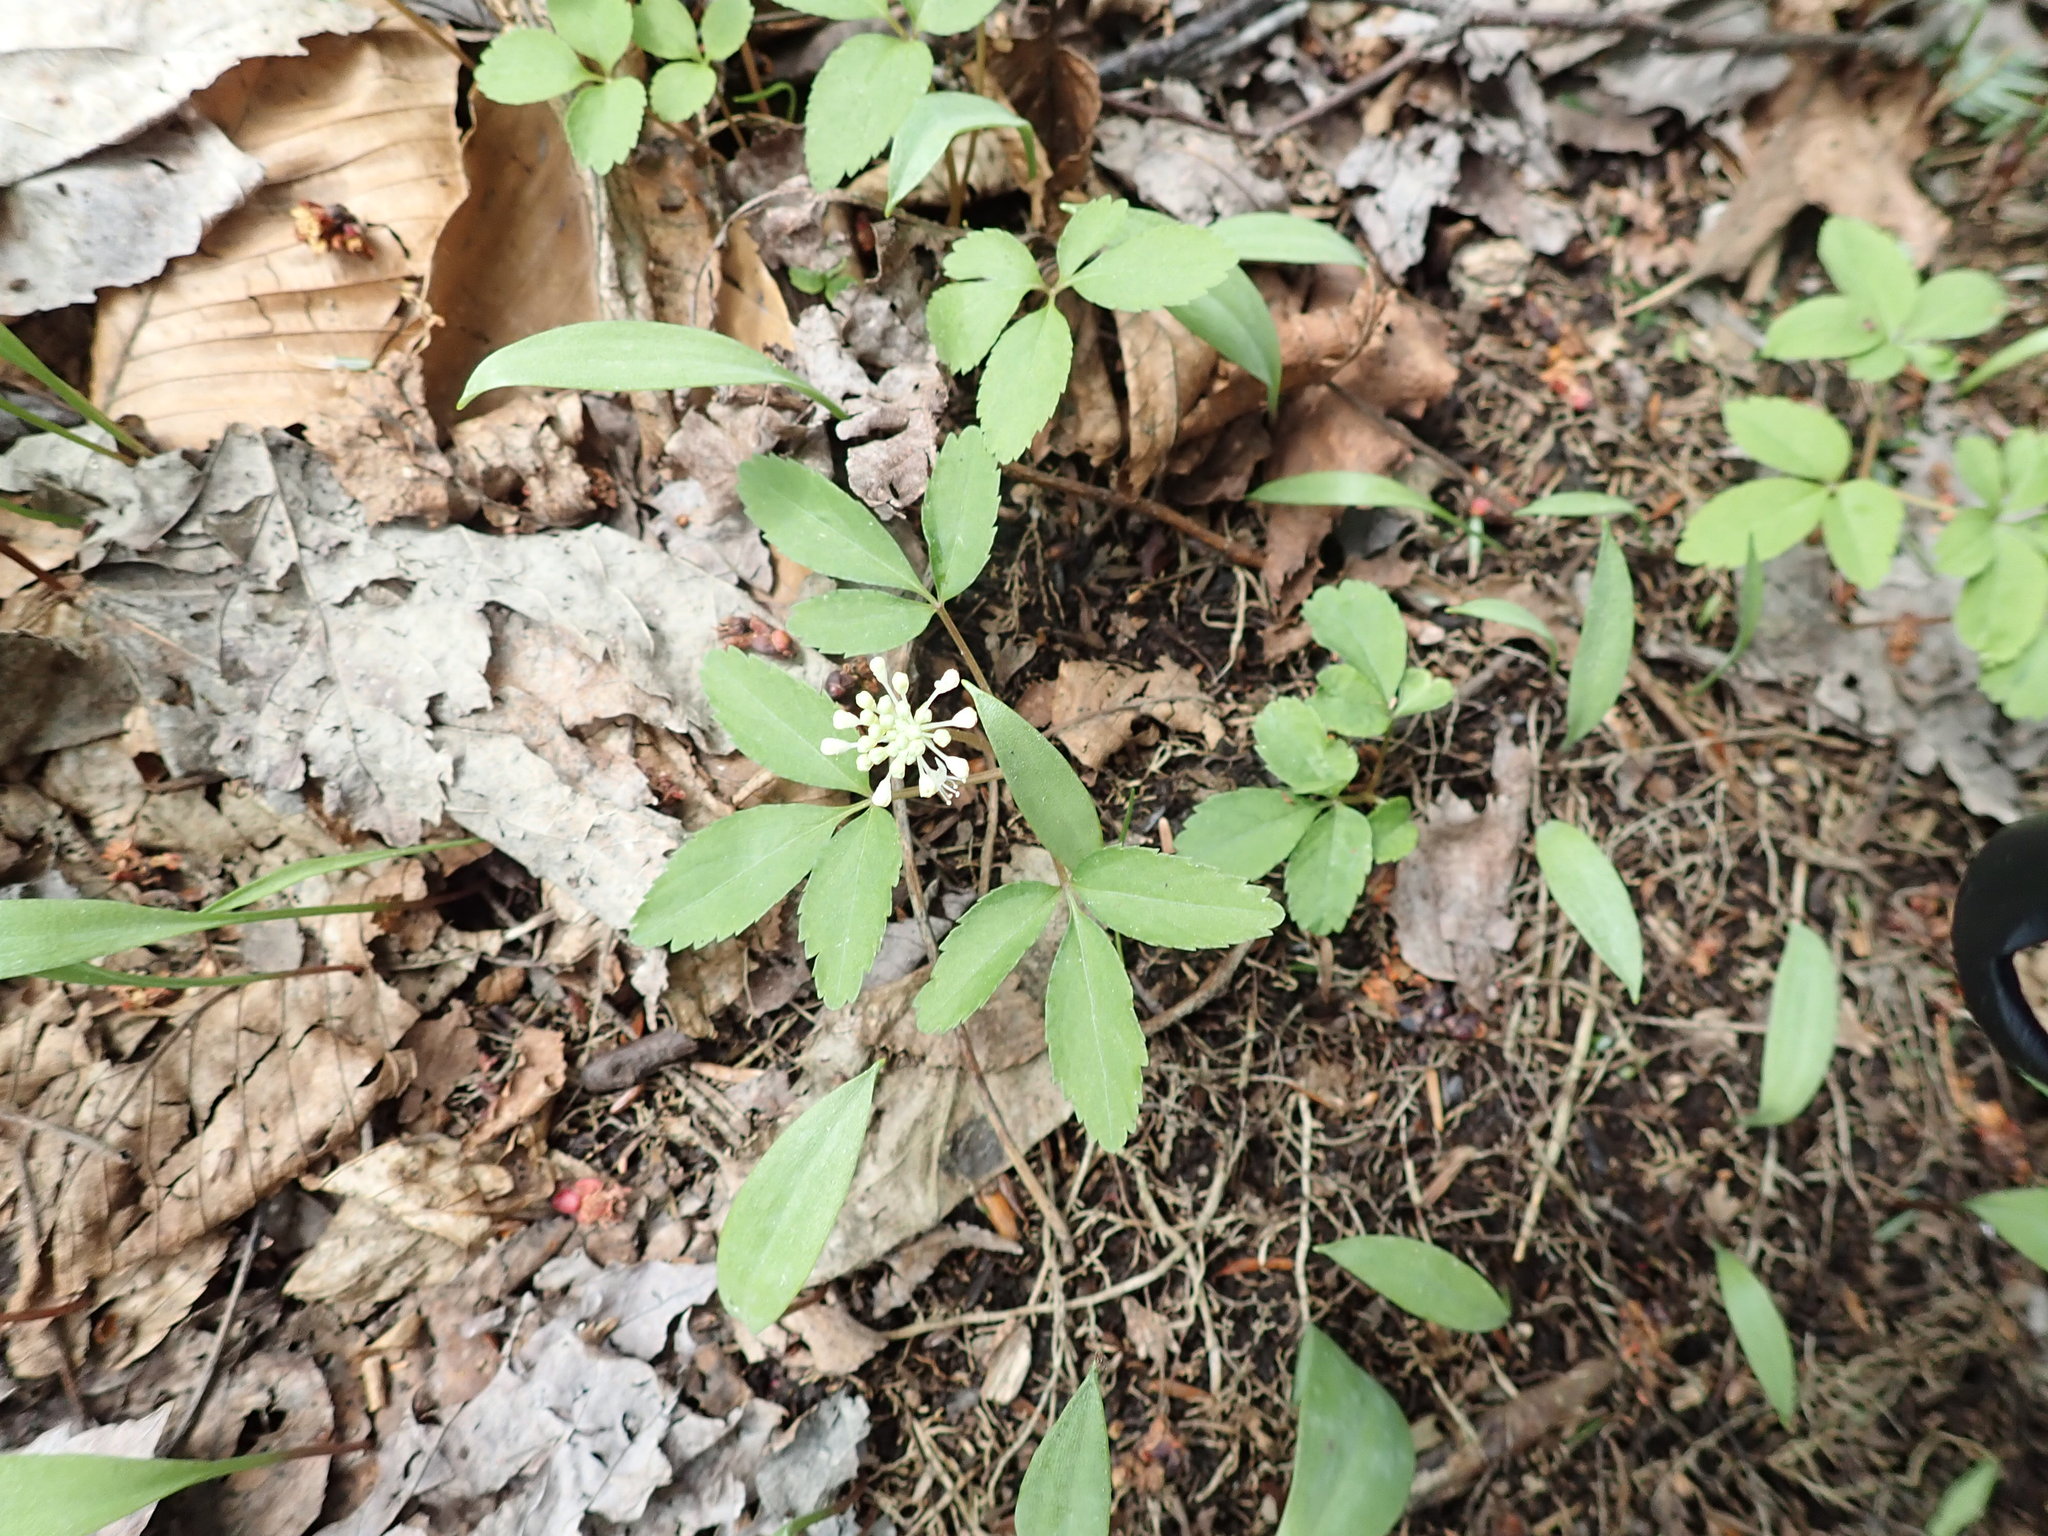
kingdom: Plantae
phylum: Tracheophyta
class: Magnoliopsida
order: Apiales
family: Araliaceae
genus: Panax
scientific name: Panax trifolius
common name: Dwarf ginseng
